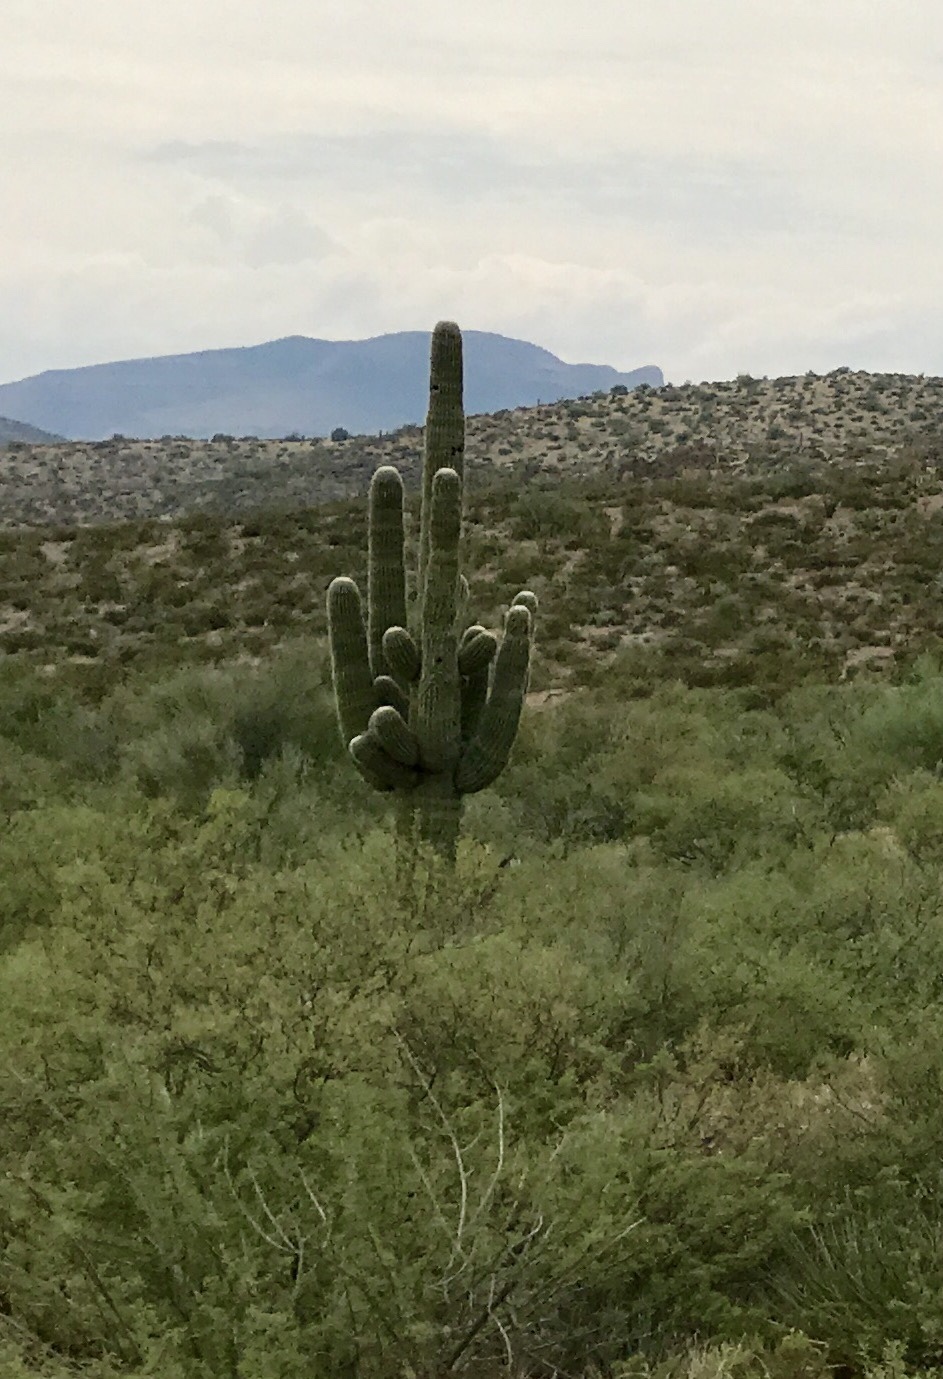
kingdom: Plantae
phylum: Tracheophyta
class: Magnoliopsida
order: Caryophyllales
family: Cactaceae
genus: Carnegiea
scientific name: Carnegiea gigantea
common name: Saguaro
